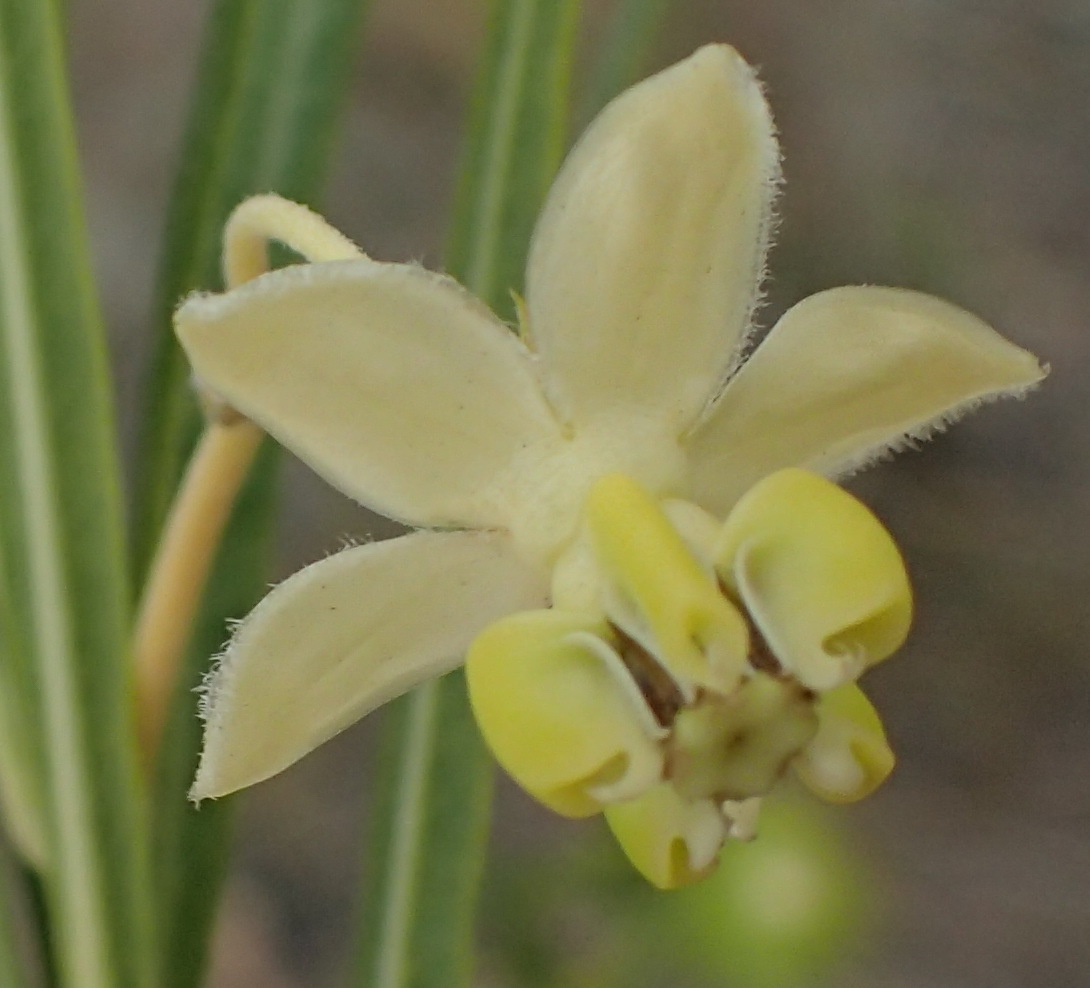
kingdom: Plantae
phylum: Tracheophyta
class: Magnoliopsida
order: Gentianales
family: Apocynaceae
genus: Gomphocarpus
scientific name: Gomphocarpus fruticosus
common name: Milkweed
